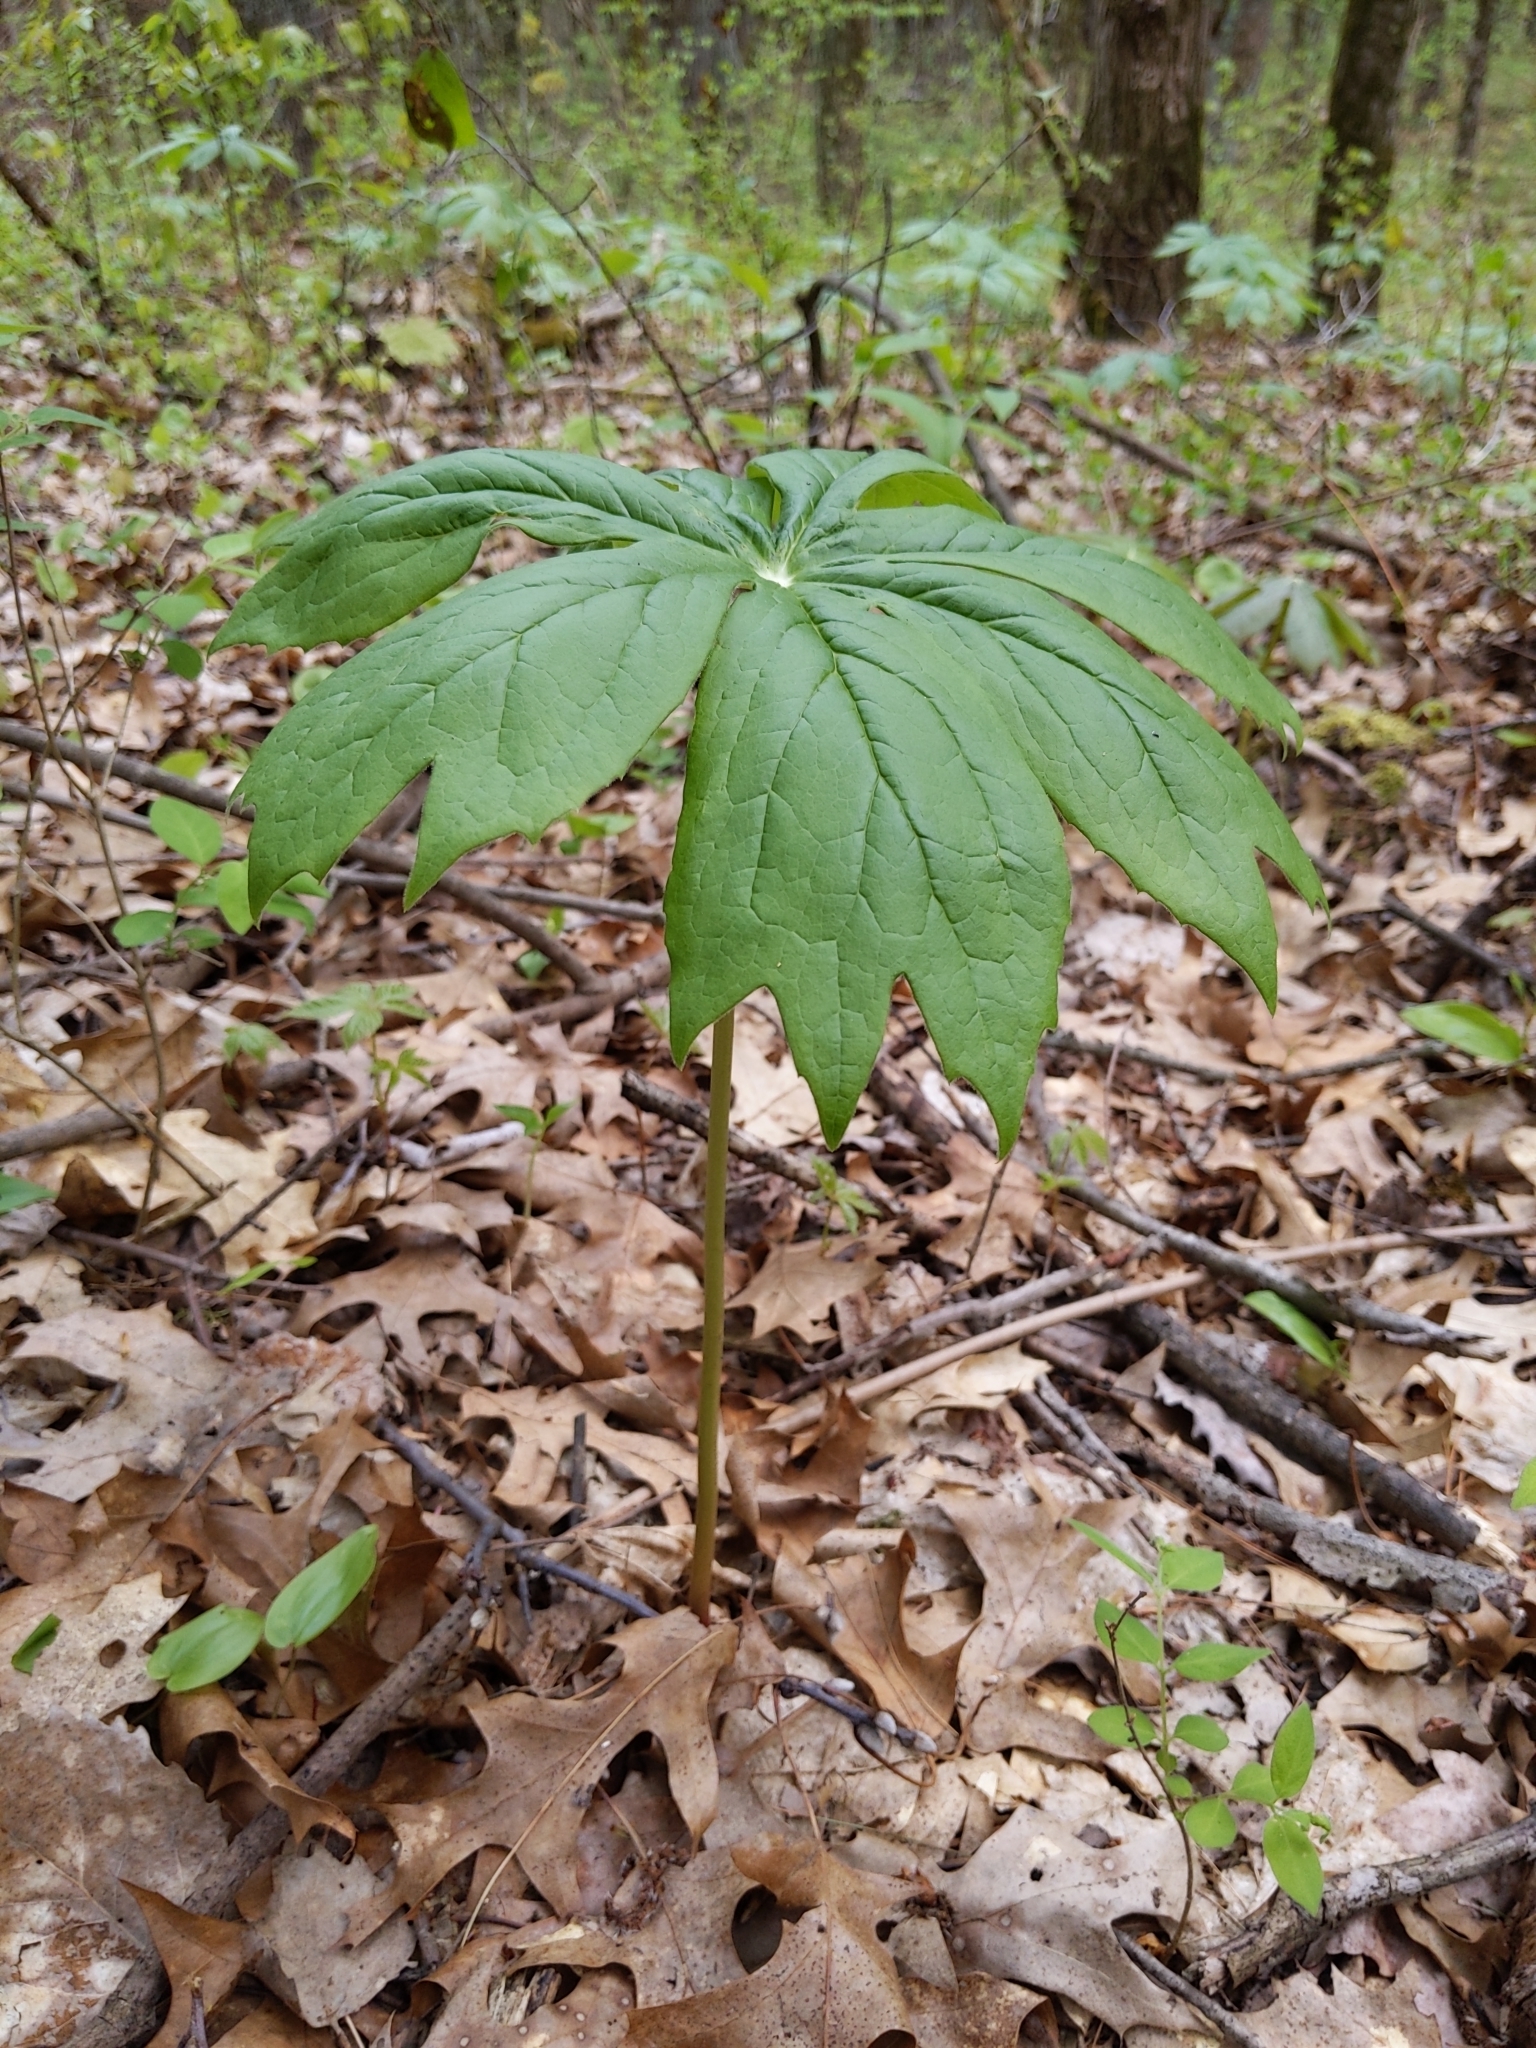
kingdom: Plantae
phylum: Tracheophyta
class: Magnoliopsida
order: Ranunculales
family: Berberidaceae
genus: Podophyllum
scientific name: Podophyllum peltatum
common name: Wild mandrake
